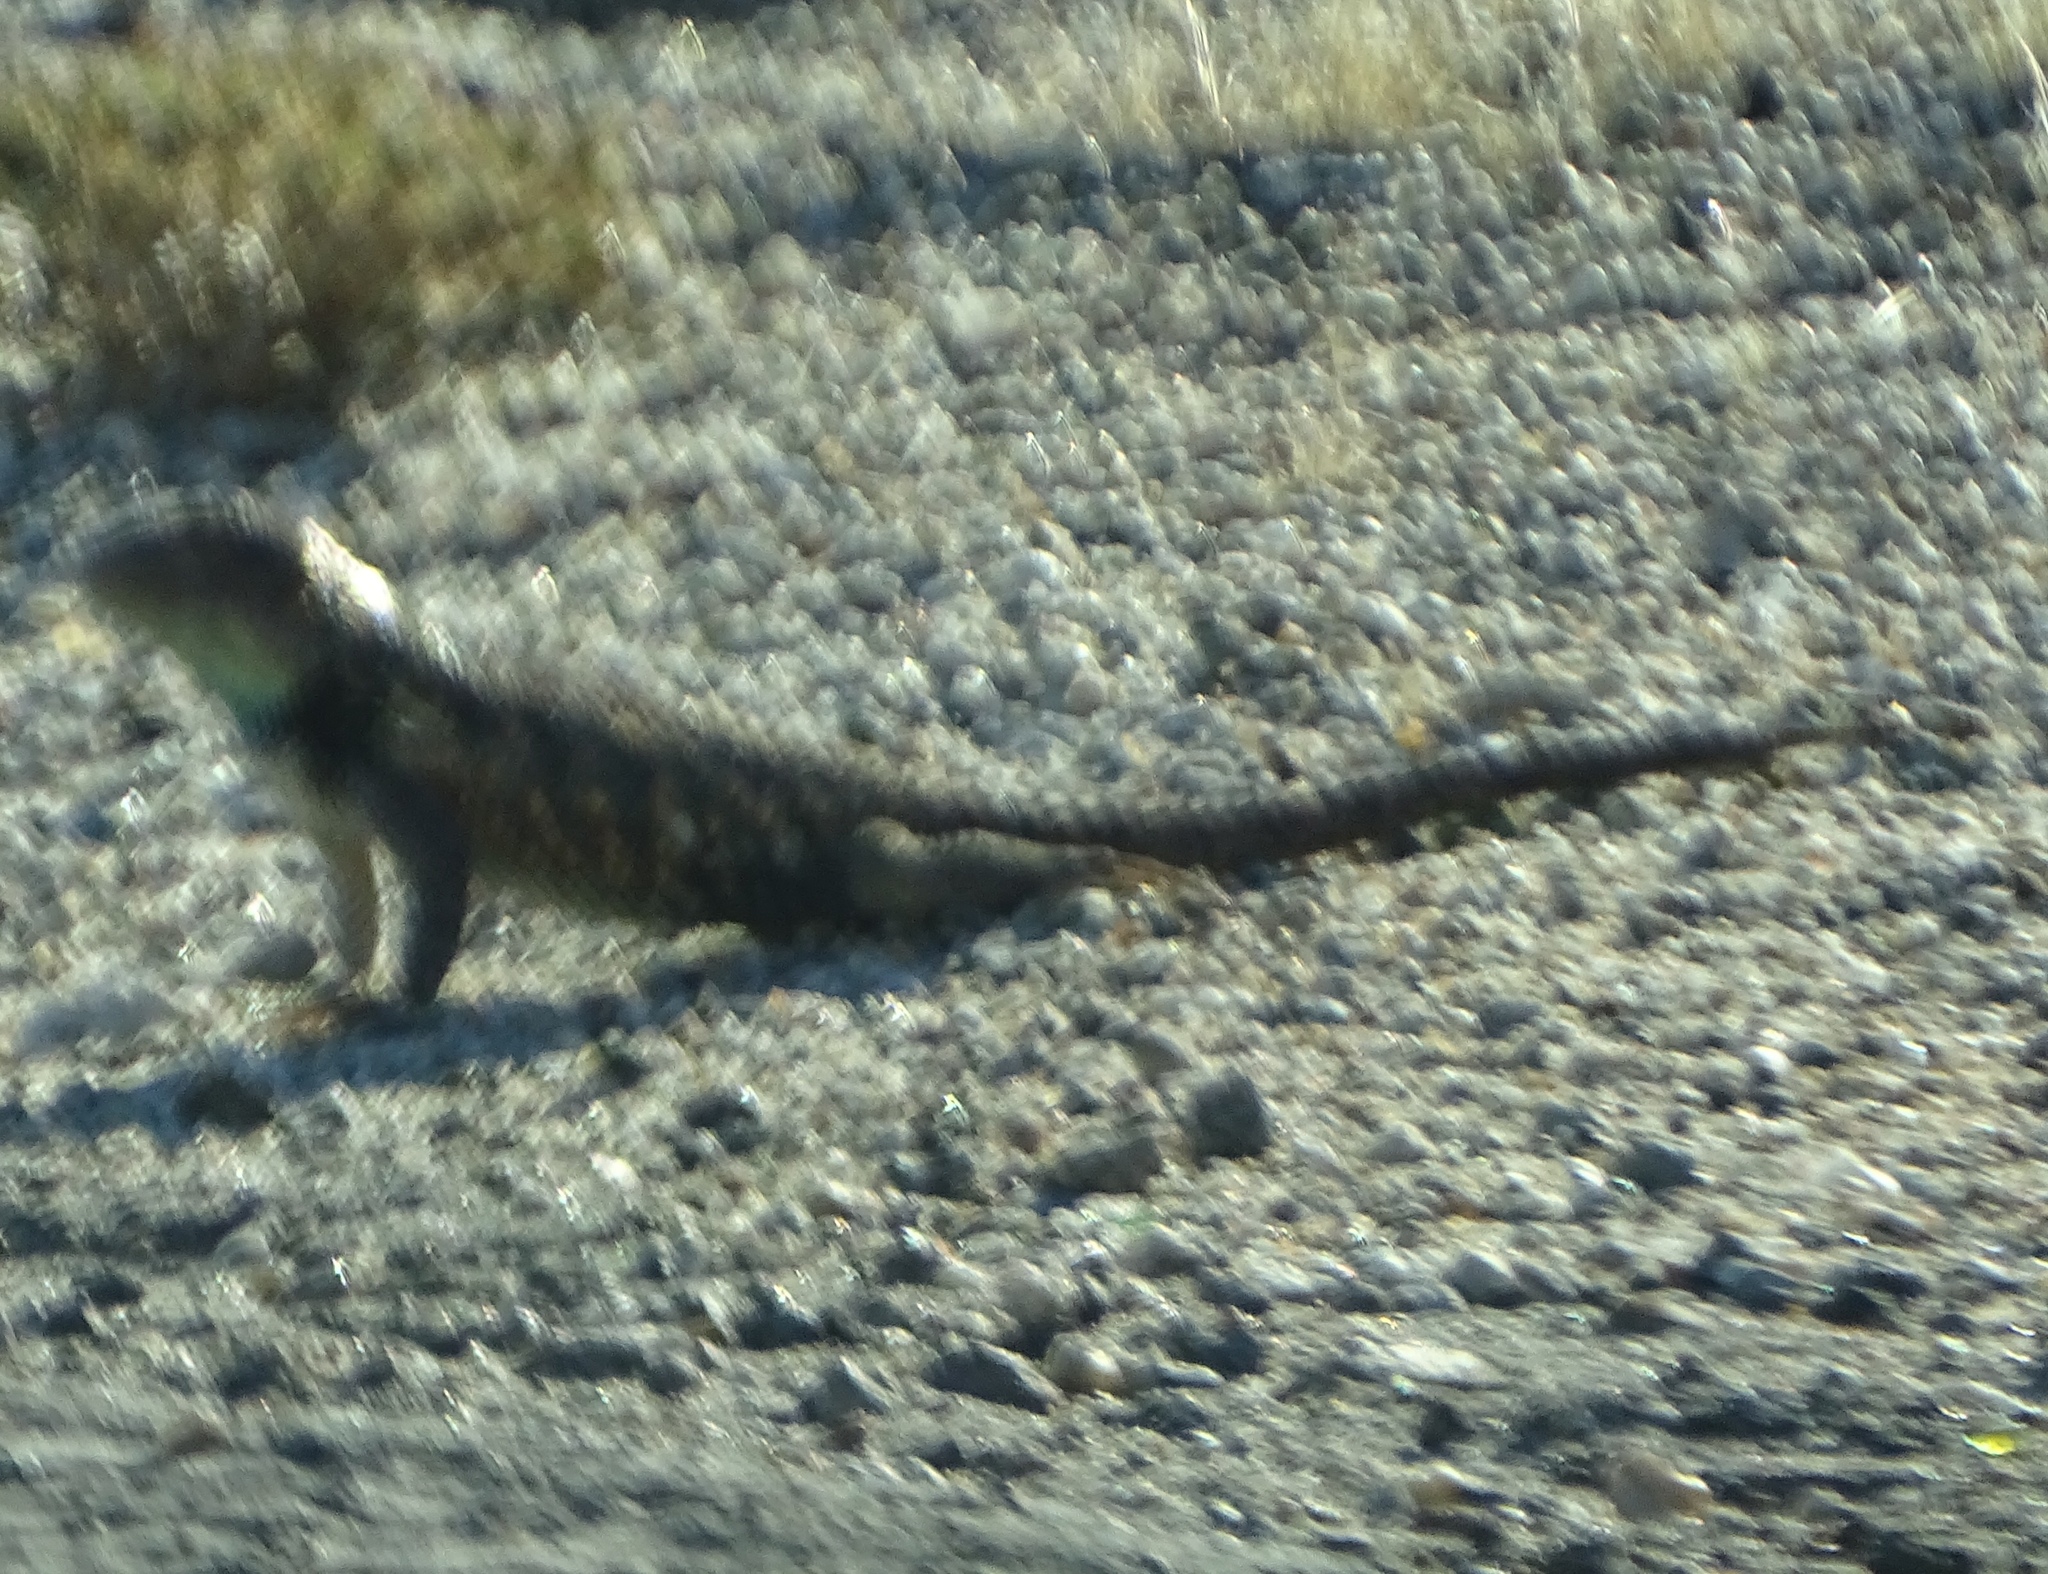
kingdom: Animalia
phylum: Chordata
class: Squamata
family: Phrynosomatidae
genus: Sceloporus
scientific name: Sceloporus magister
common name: Desert spiny lizard
